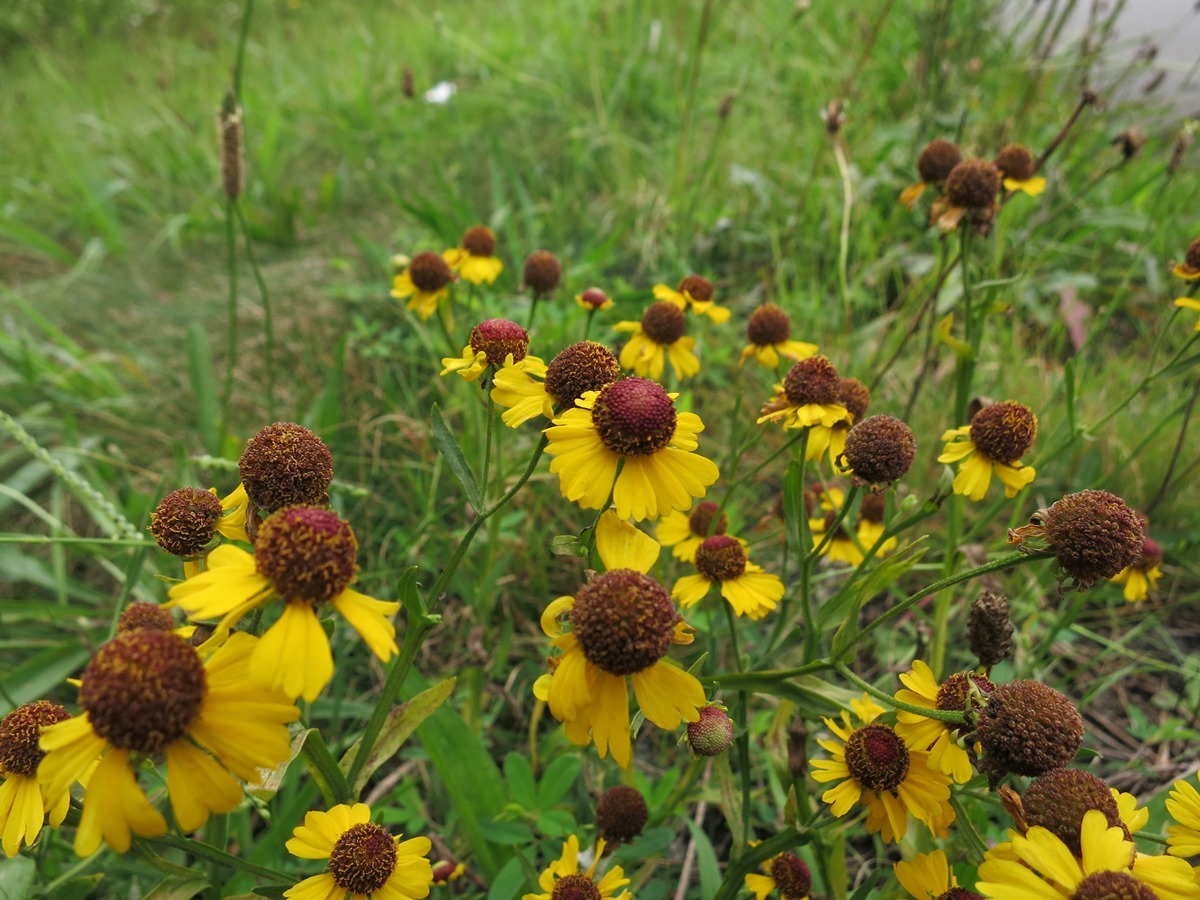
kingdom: Plantae
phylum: Tracheophyta
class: Magnoliopsida
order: Asterales
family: Asteraceae
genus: Helenium
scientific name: Helenium flexuosum
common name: Naked-flowered sneezeweed
